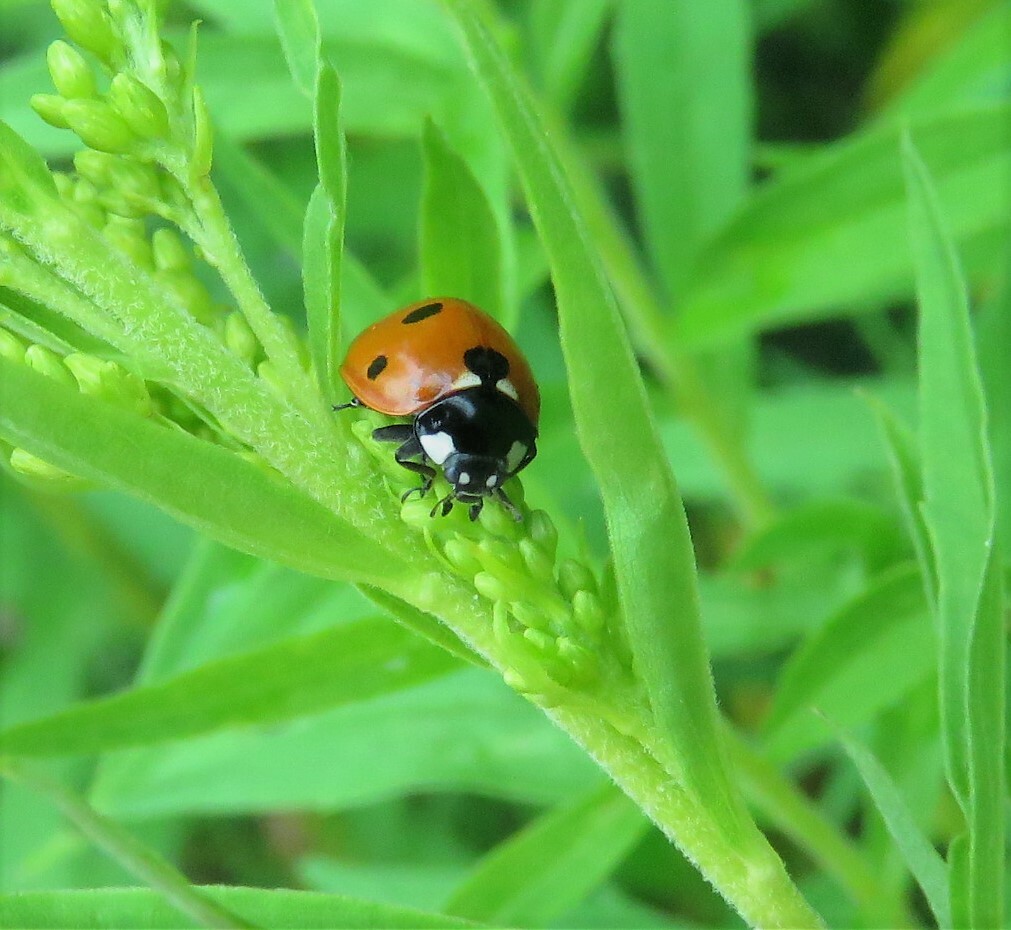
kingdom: Animalia
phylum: Arthropoda
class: Insecta
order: Coleoptera
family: Coccinellidae
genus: Coccinella
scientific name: Coccinella septempunctata
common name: Sevenspotted lady beetle
